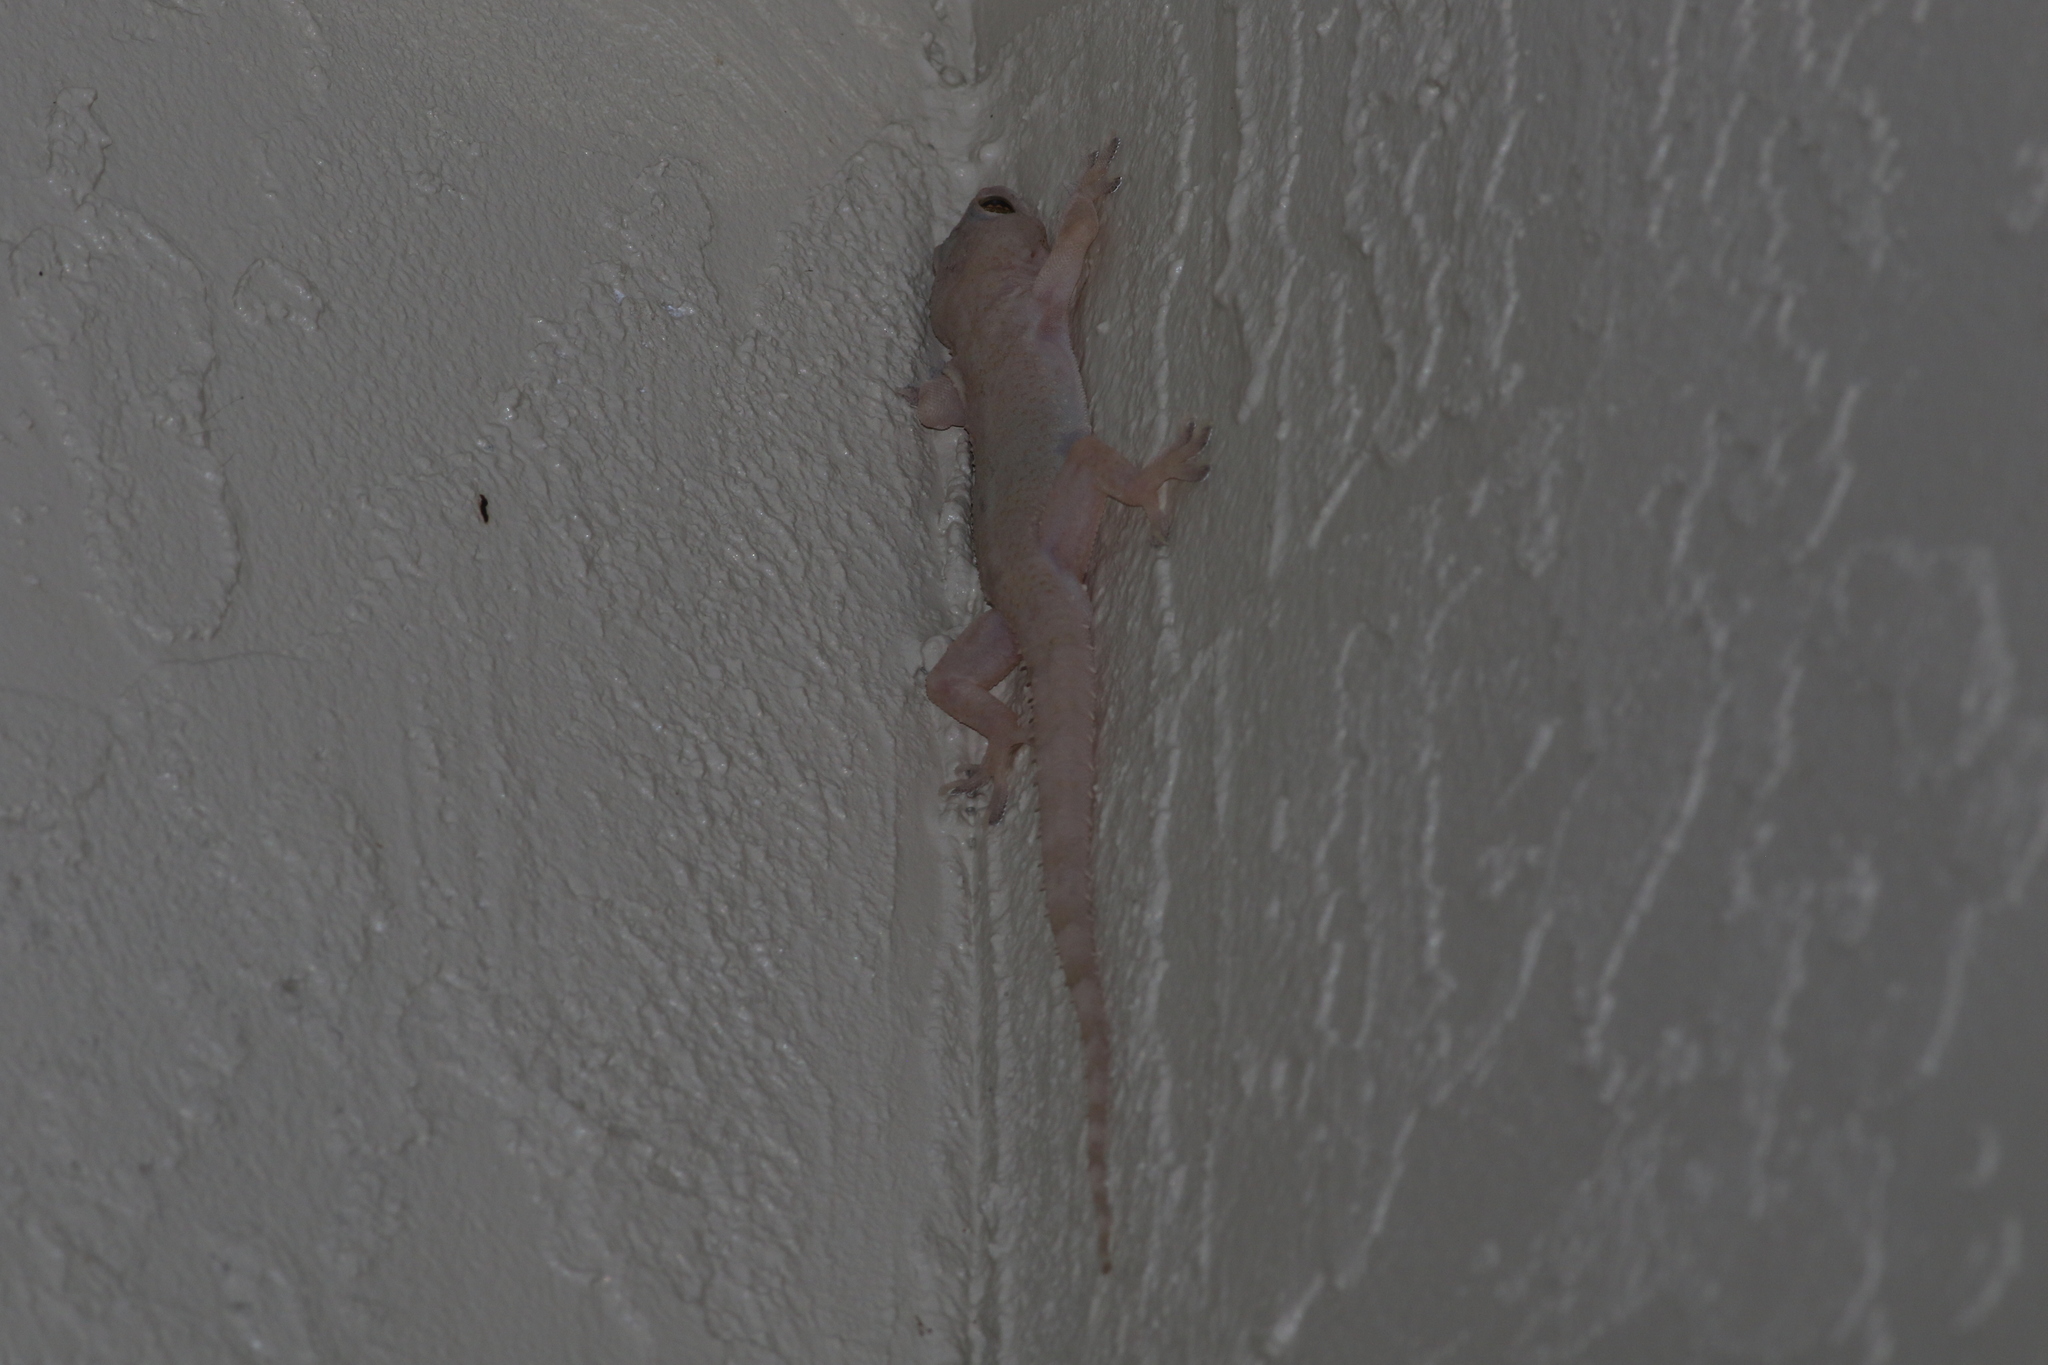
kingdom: Animalia
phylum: Chordata
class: Squamata
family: Gekkonidae
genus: Hemidactylus
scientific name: Hemidactylus mabouia
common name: House gecko
